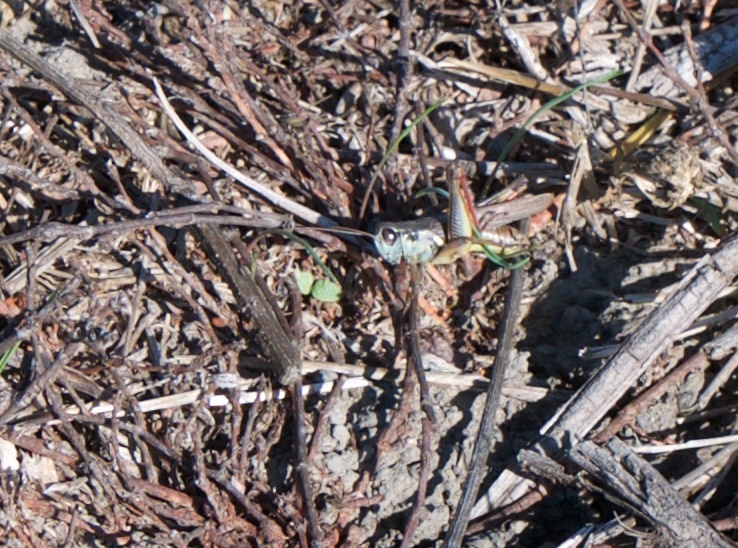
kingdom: Animalia
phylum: Arthropoda
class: Insecta
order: Orthoptera
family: Acrididae
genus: Melanoplus
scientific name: Melanoplus femurrubrum
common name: Red-legged grasshopper
